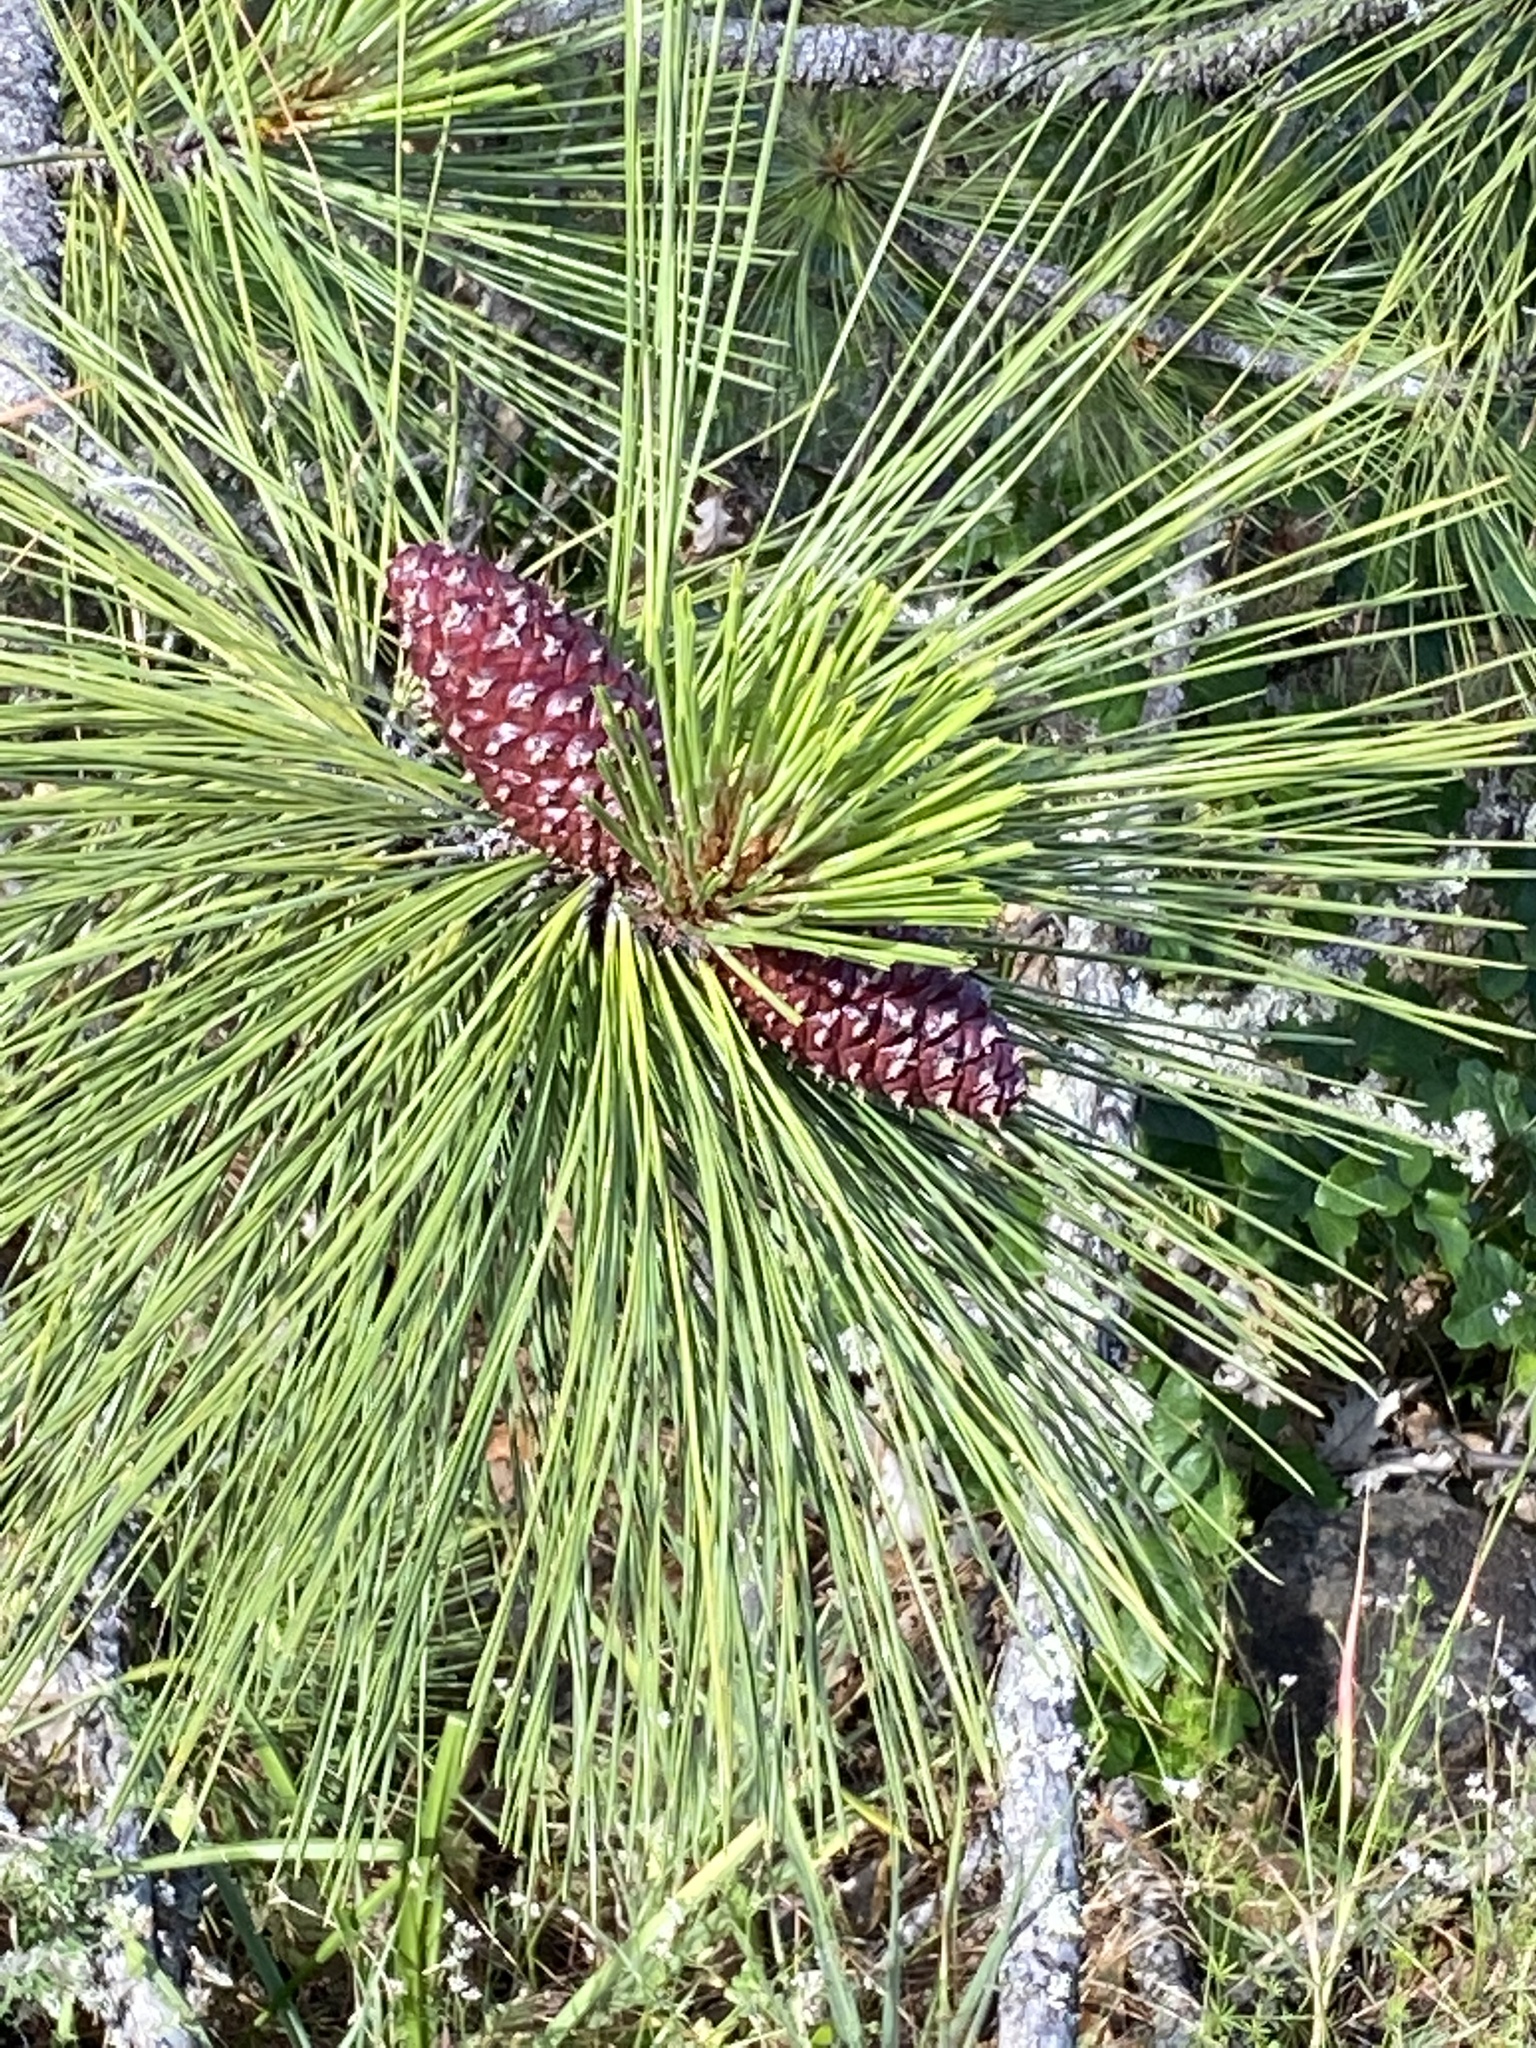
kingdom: Plantae
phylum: Tracheophyta
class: Pinopsida
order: Pinales
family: Pinaceae
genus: Pinus
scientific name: Pinus ponderosa
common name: Western yellow-pine
